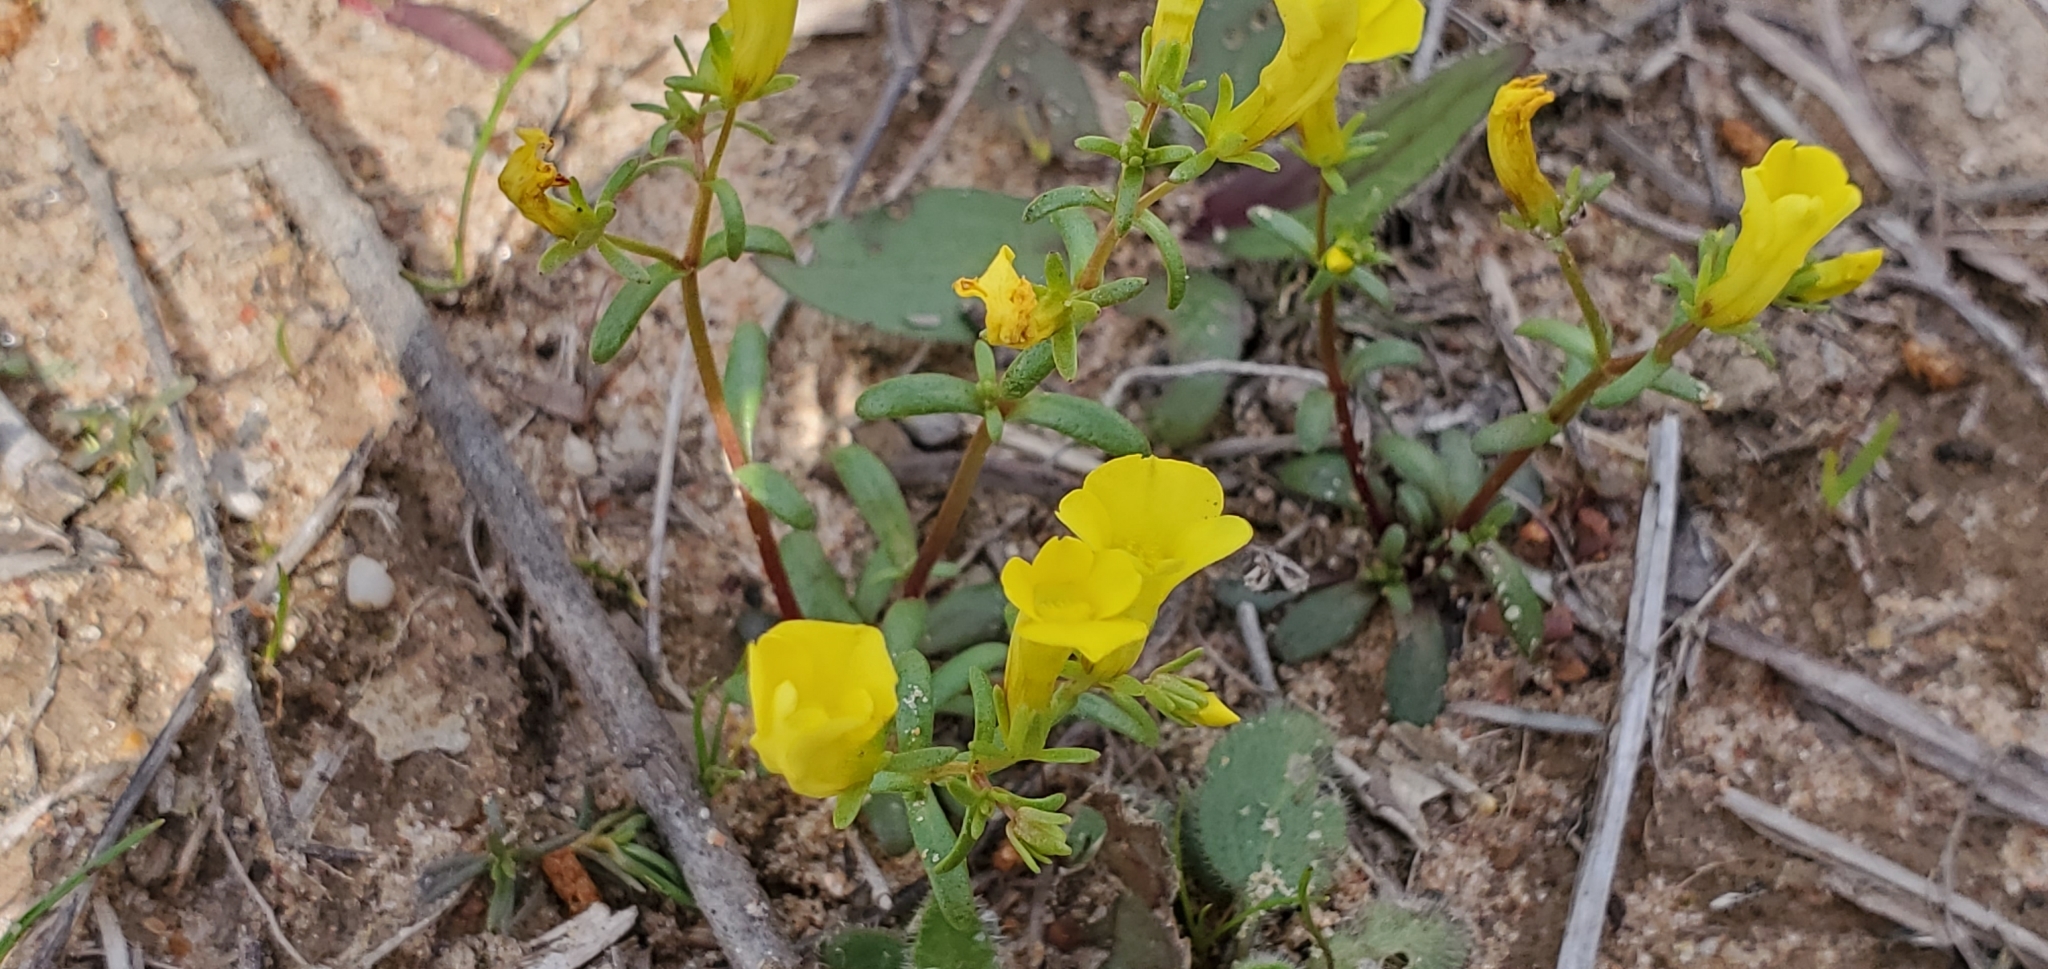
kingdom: Plantae
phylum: Tracheophyta
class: Magnoliopsida
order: Lamiales
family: Plantaginaceae
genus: Gratiola
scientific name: Gratiola flava
